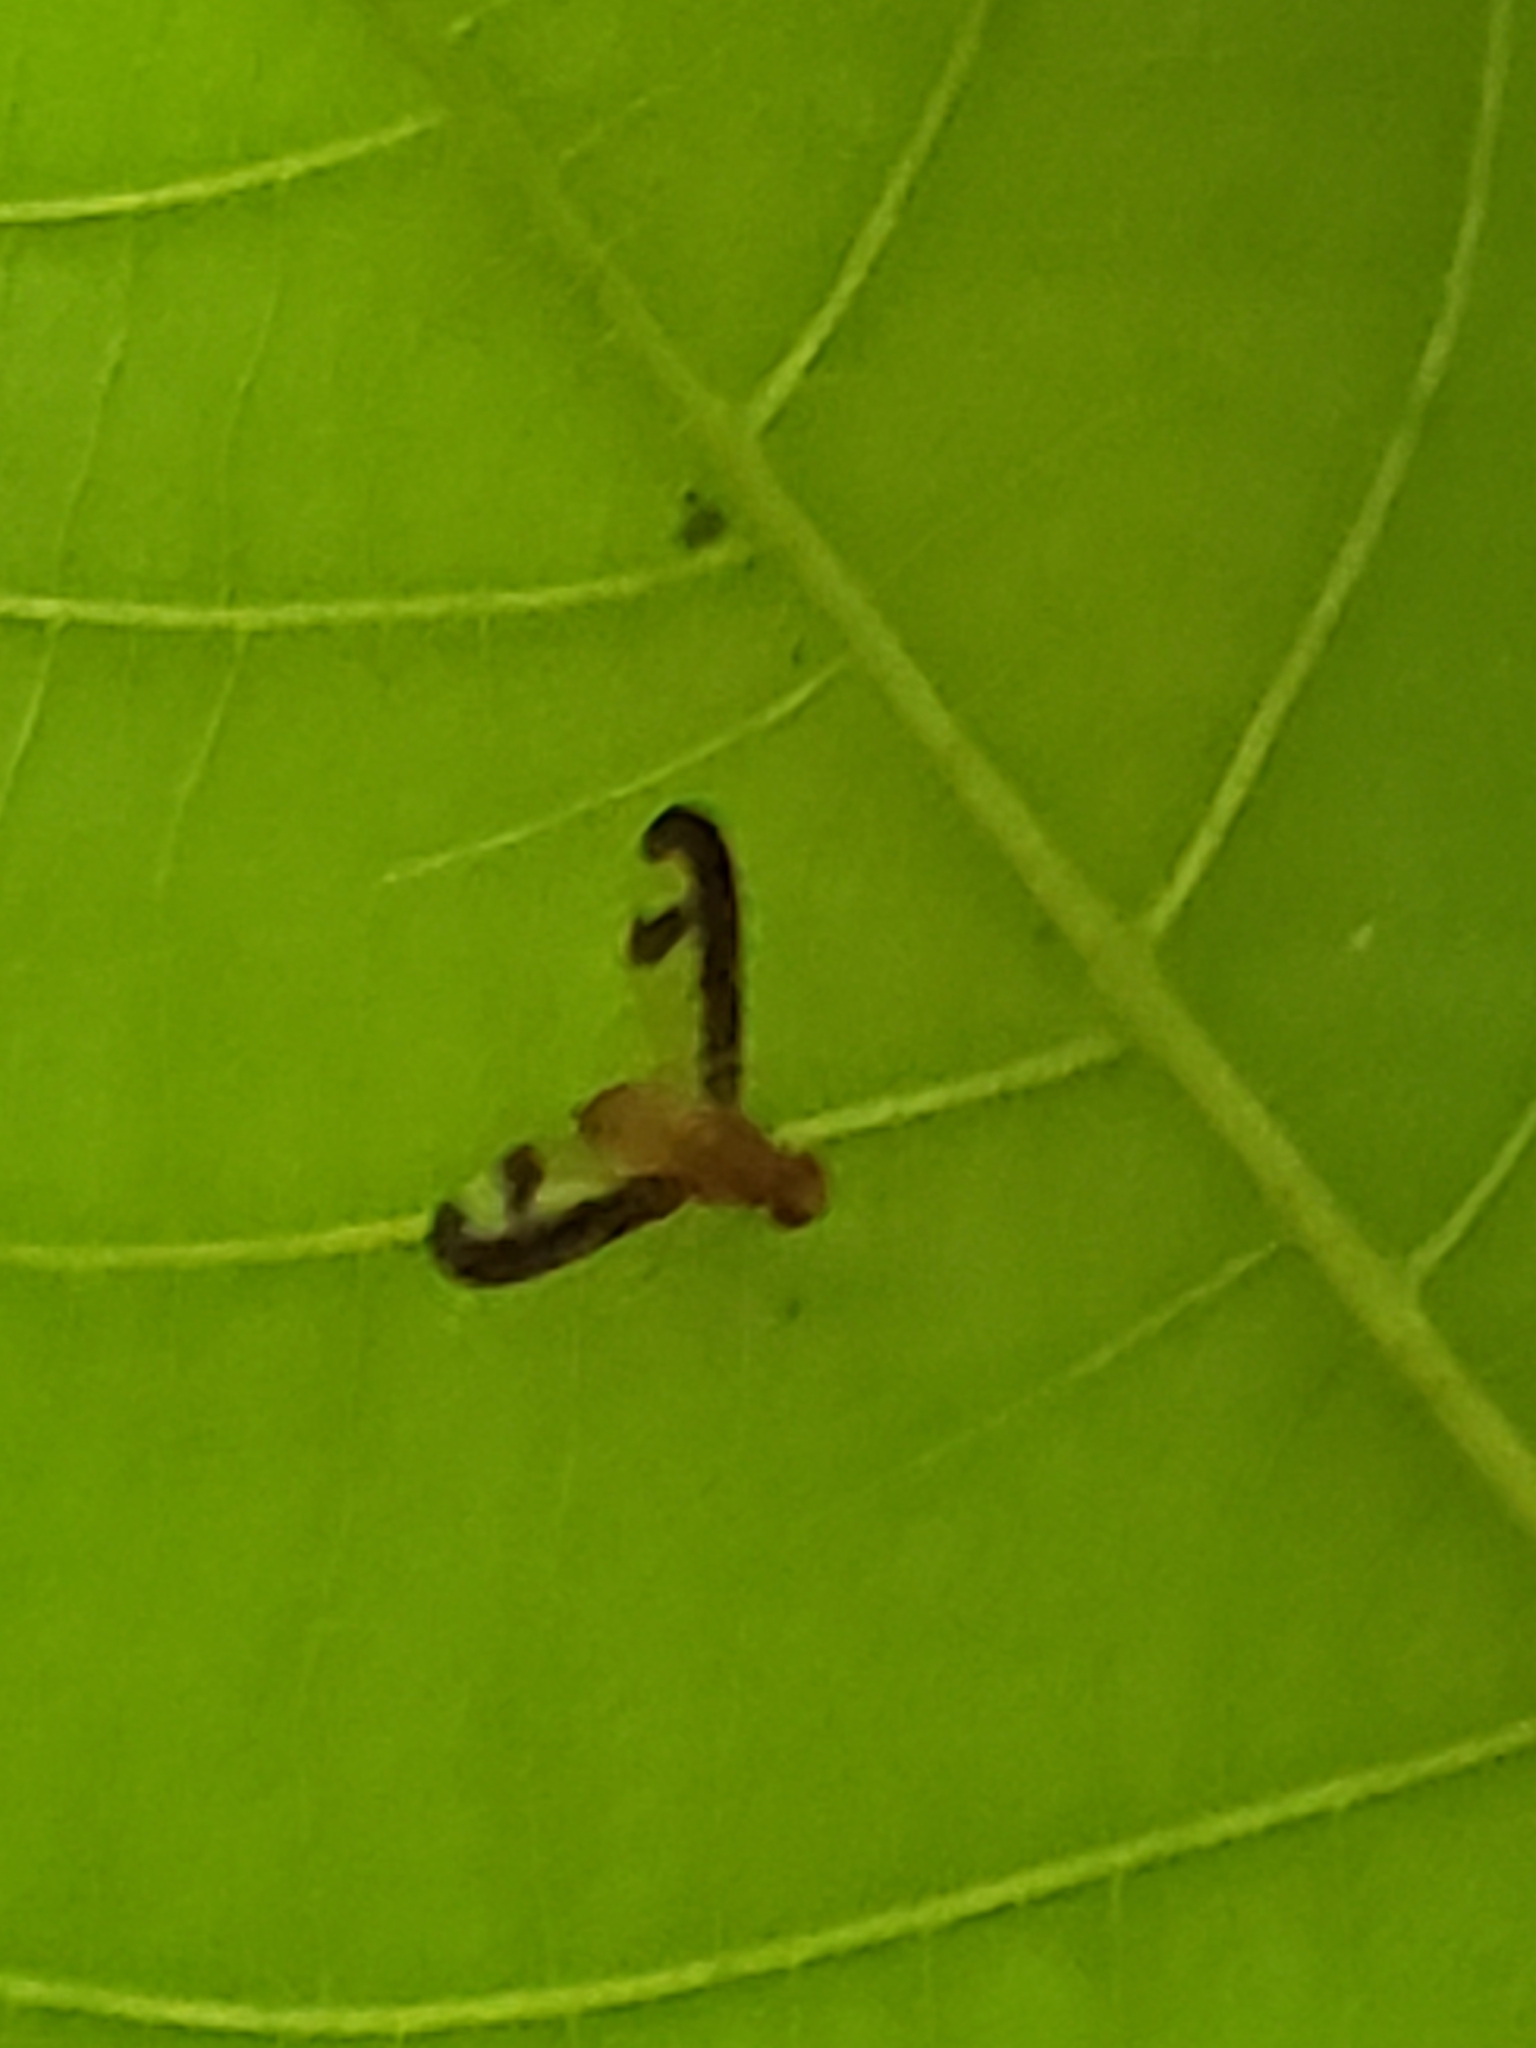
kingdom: Animalia
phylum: Arthropoda
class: Insecta
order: Diptera
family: Pallopteridae
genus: Toxonevra
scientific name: Toxonevra superba
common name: Antlered flutter fly
